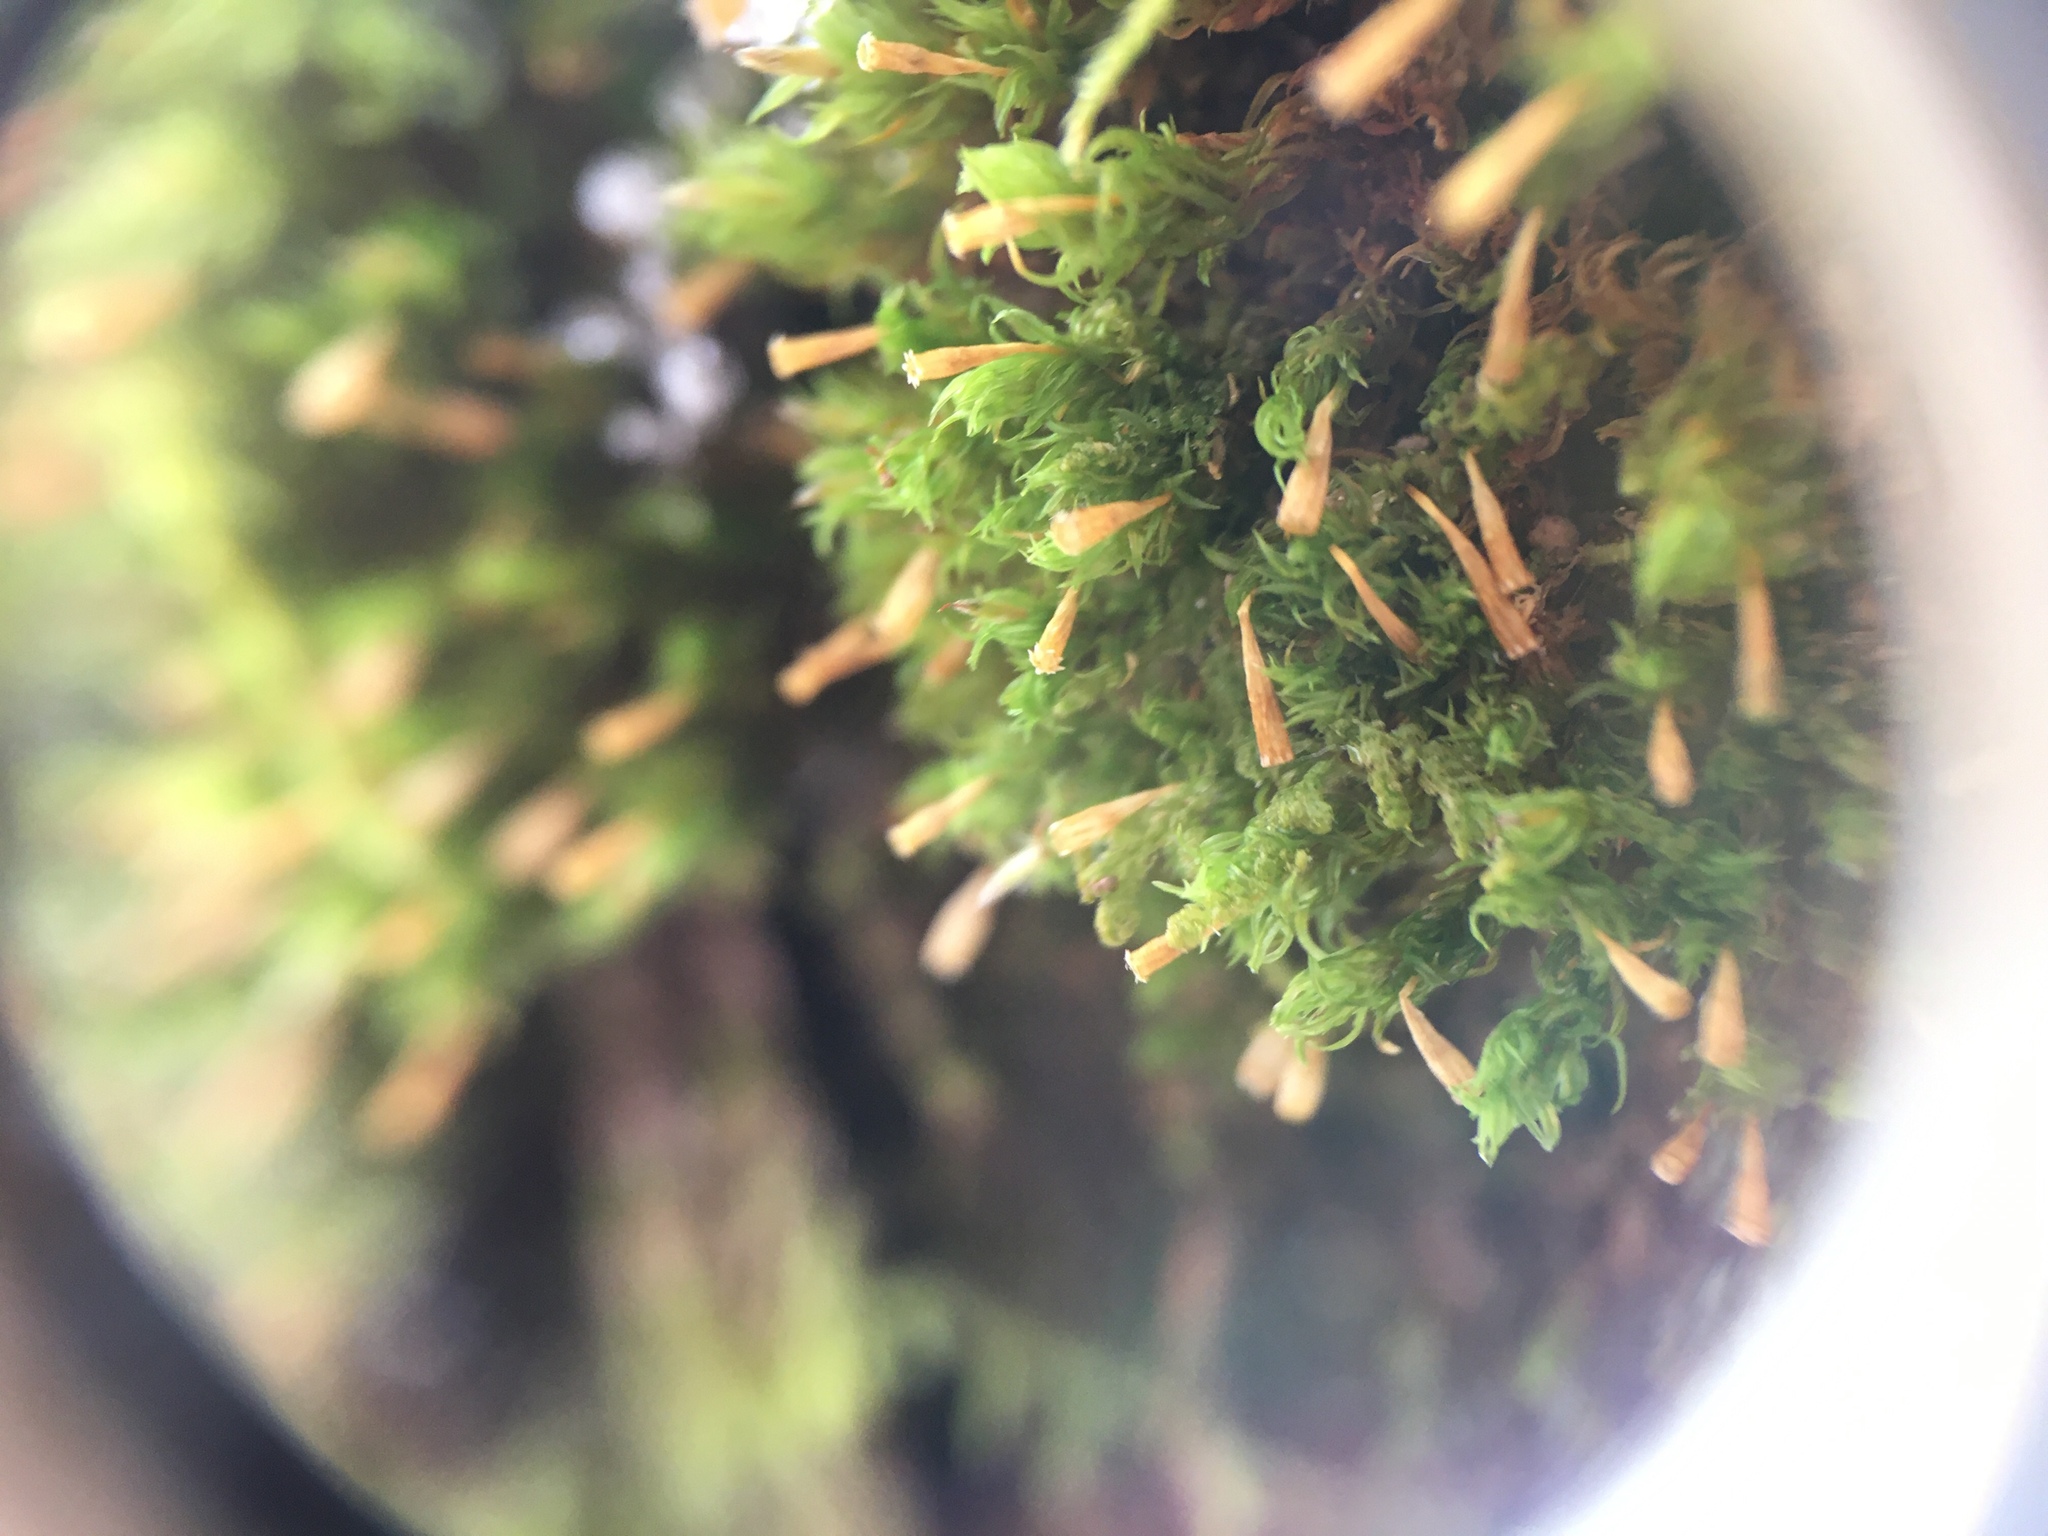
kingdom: Plantae
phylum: Bryophyta
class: Bryopsida
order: Orthotrichales
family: Orthotrichaceae
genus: Ulota
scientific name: Ulota crispa
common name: Crisped pincushion moss
